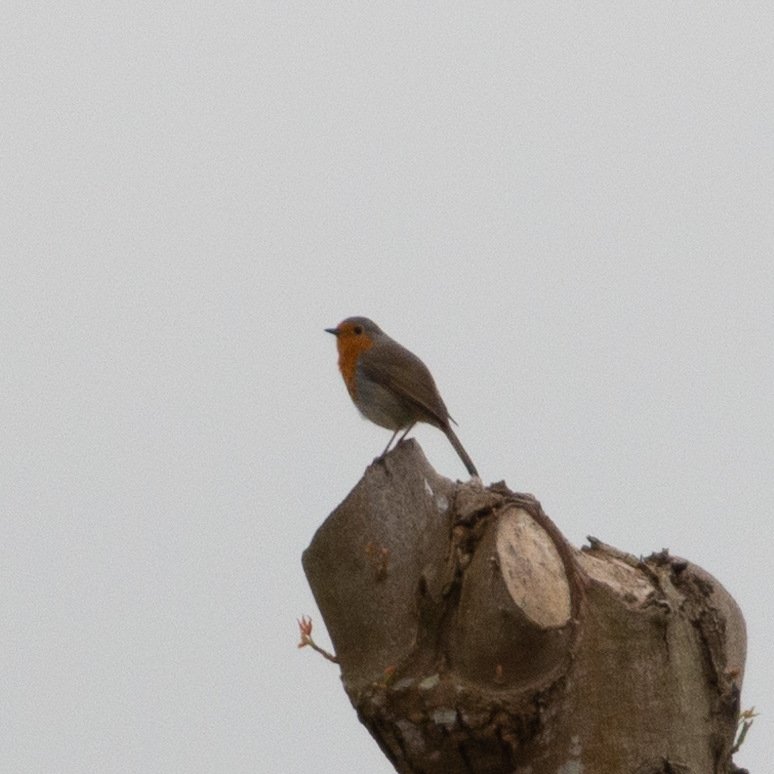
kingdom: Animalia
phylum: Chordata
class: Aves
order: Passeriformes
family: Muscicapidae
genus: Erithacus
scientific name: Erithacus rubecula
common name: European robin
